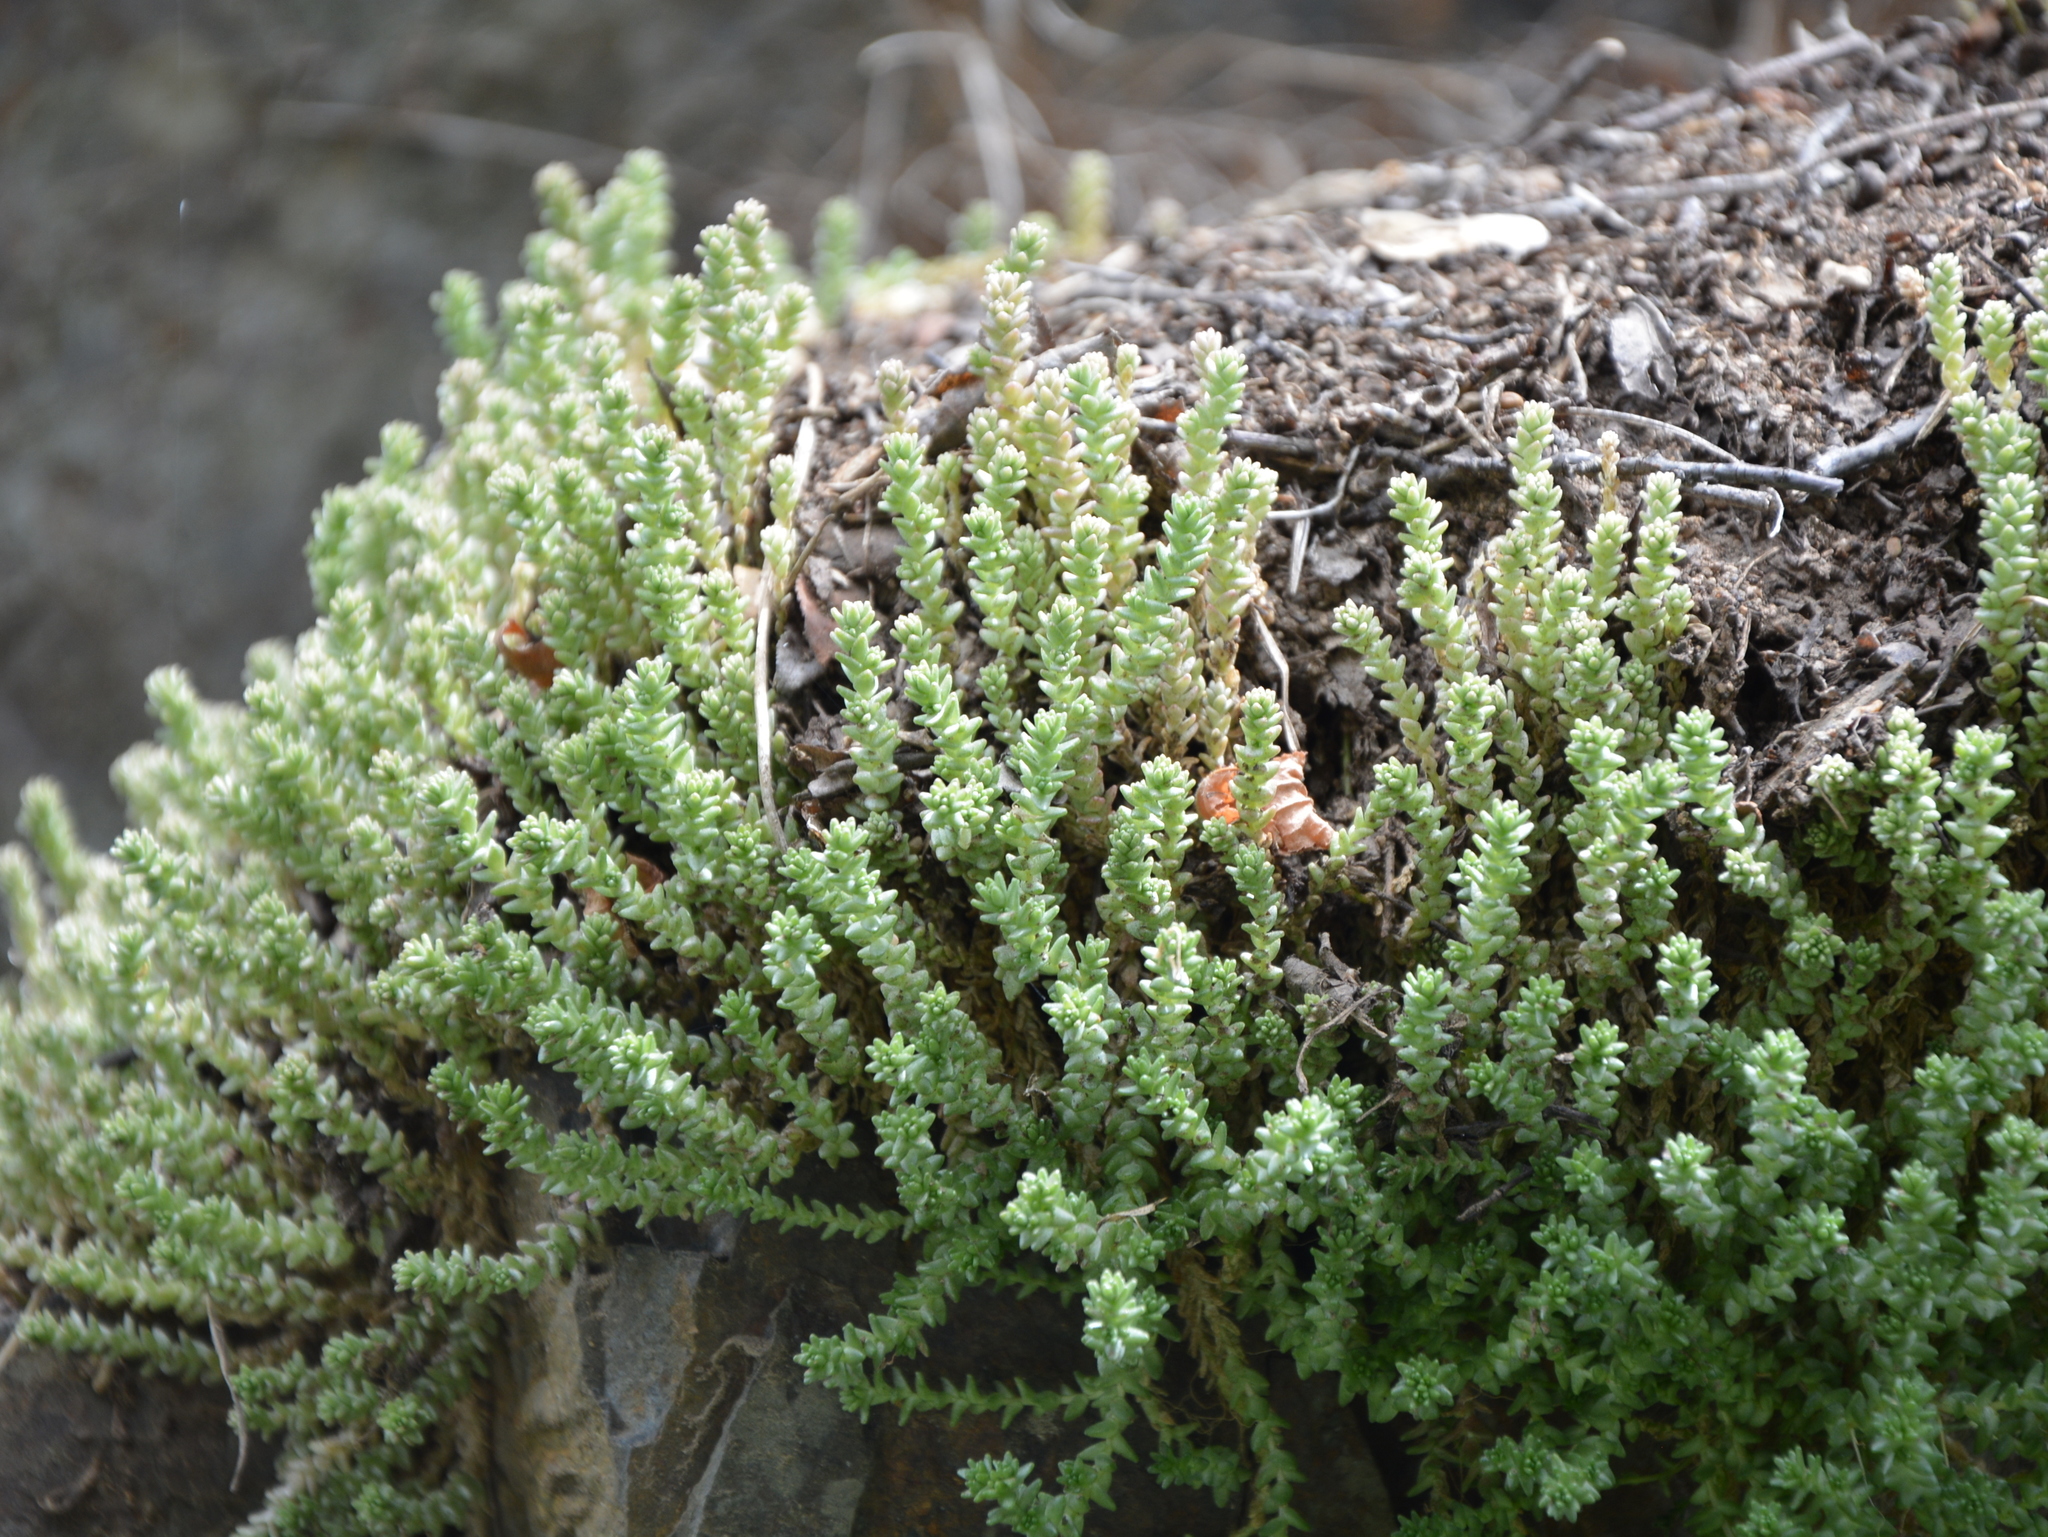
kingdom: Plantae
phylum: Tracheophyta
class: Magnoliopsida
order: Saxifragales
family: Crassulaceae
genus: Sedum
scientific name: Sedum acre
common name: Biting stonecrop
